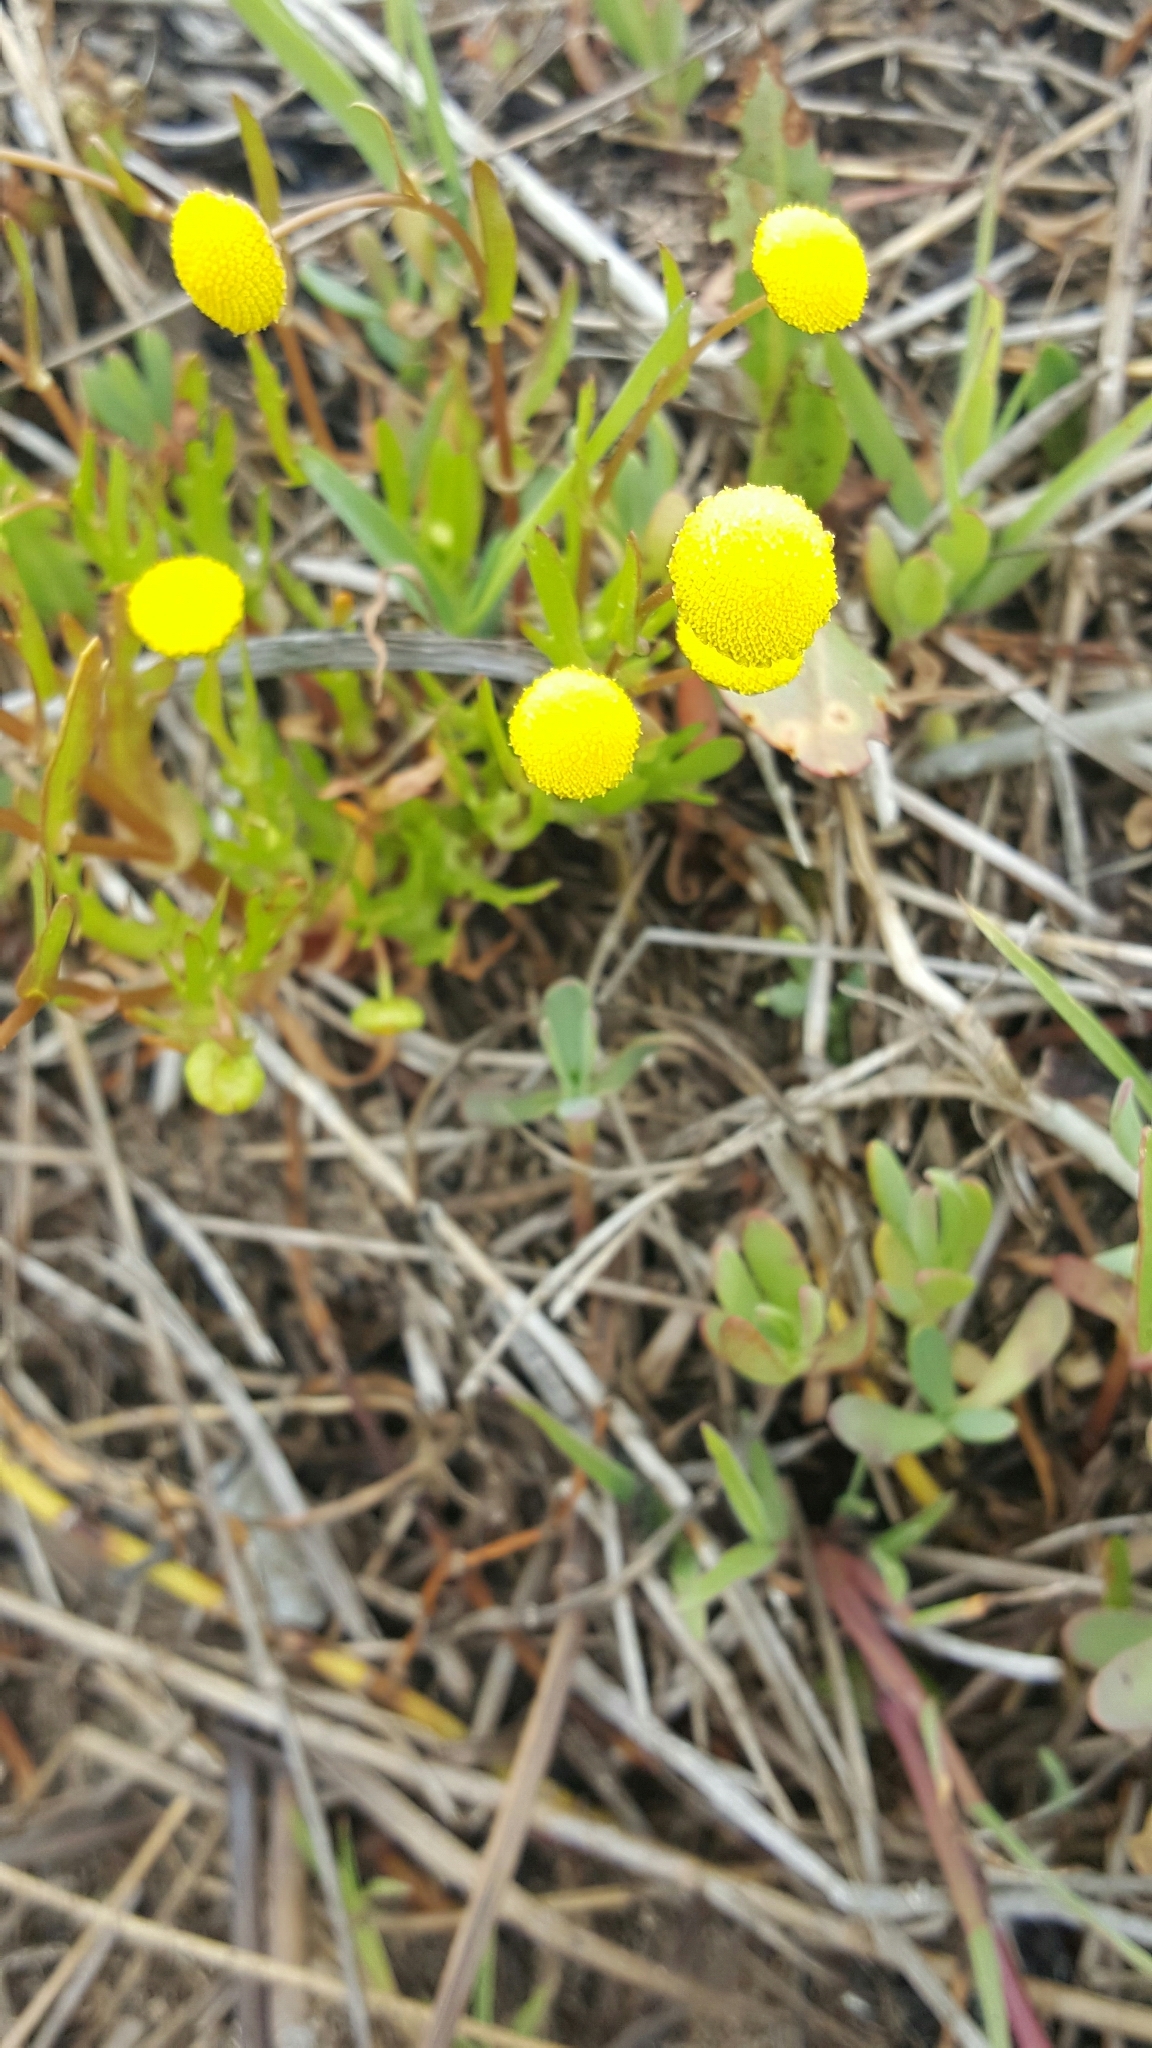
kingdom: Plantae
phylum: Tracheophyta
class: Magnoliopsida
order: Asterales
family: Asteraceae
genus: Cotula
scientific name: Cotula coronopifolia
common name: Buttonweed
